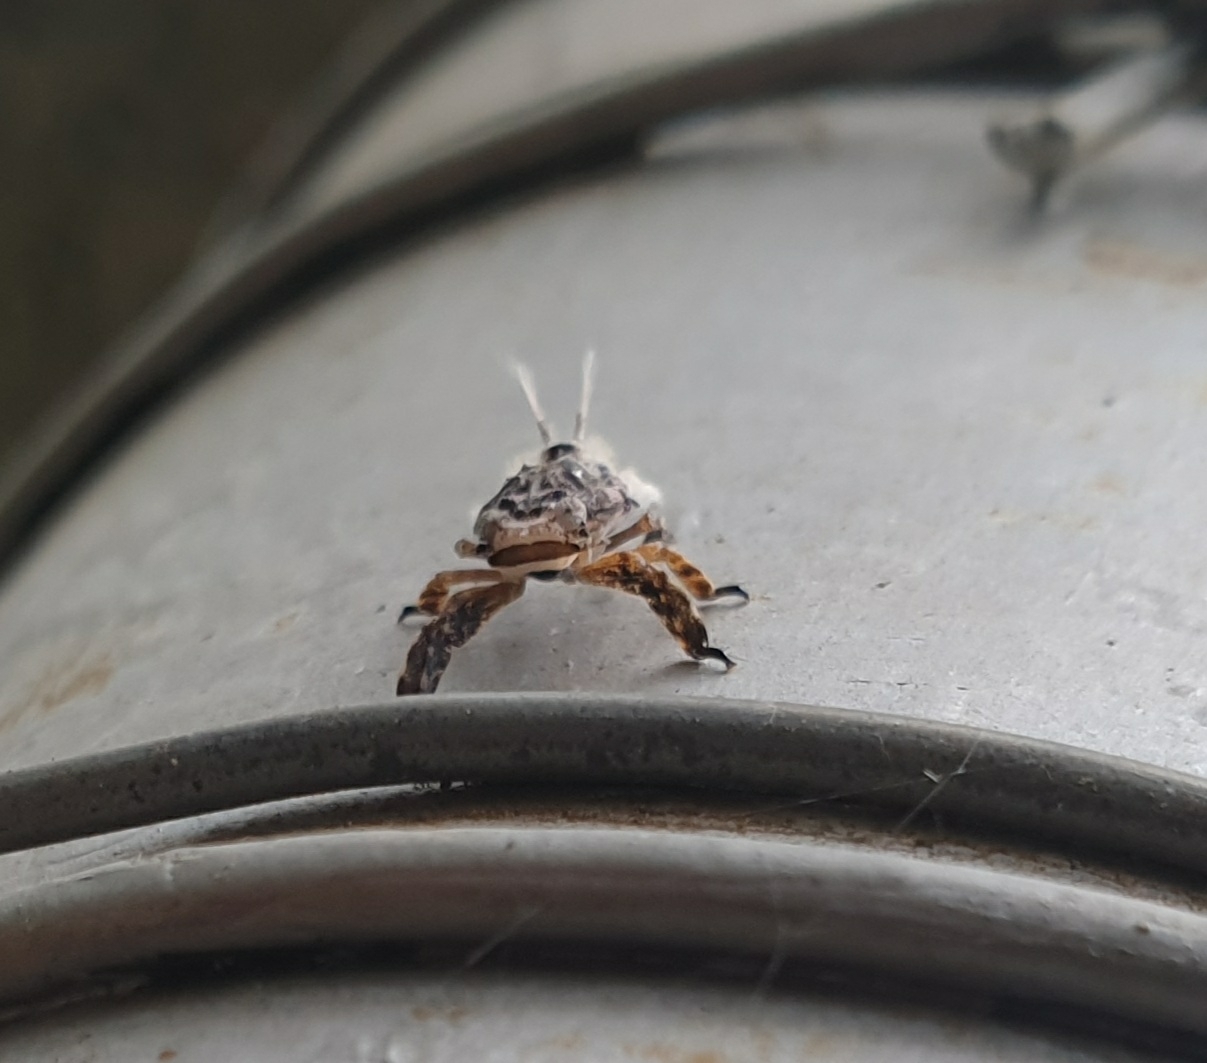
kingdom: Animalia
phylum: Arthropoda
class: Insecta
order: Hemiptera
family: Eurybrachidae
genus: Paropioxys
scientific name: Paropioxys jucundus
